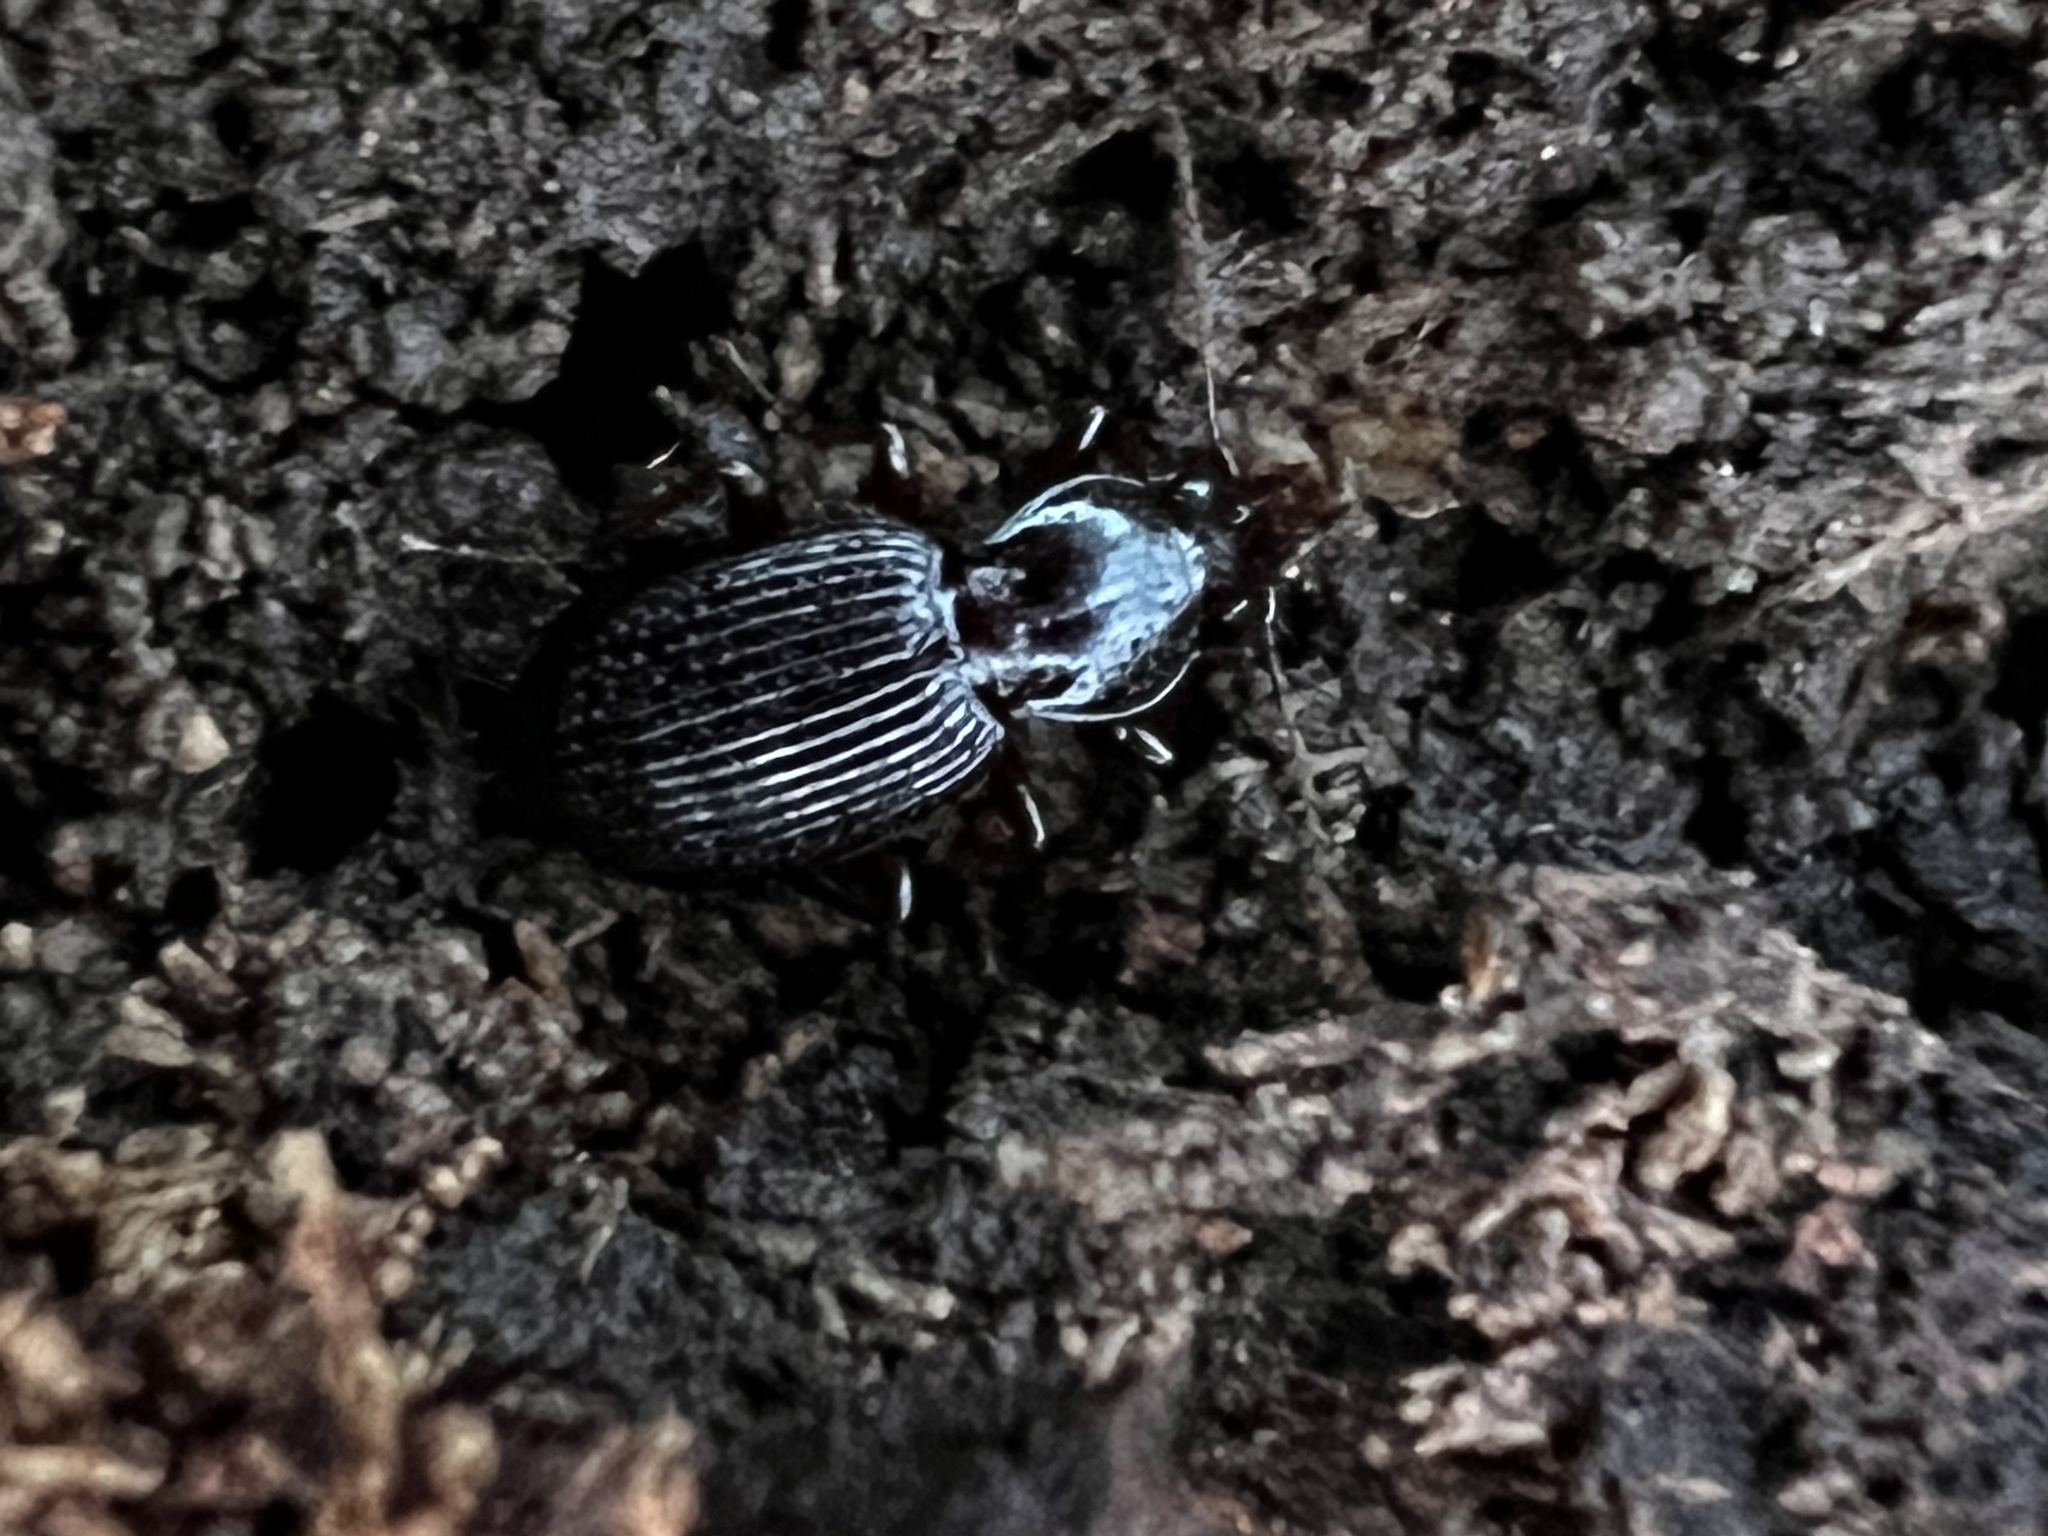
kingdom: Animalia
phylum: Arthropoda
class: Insecta
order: Coleoptera
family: Carabidae
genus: Gastrellarius
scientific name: Gastrellarius honestus
